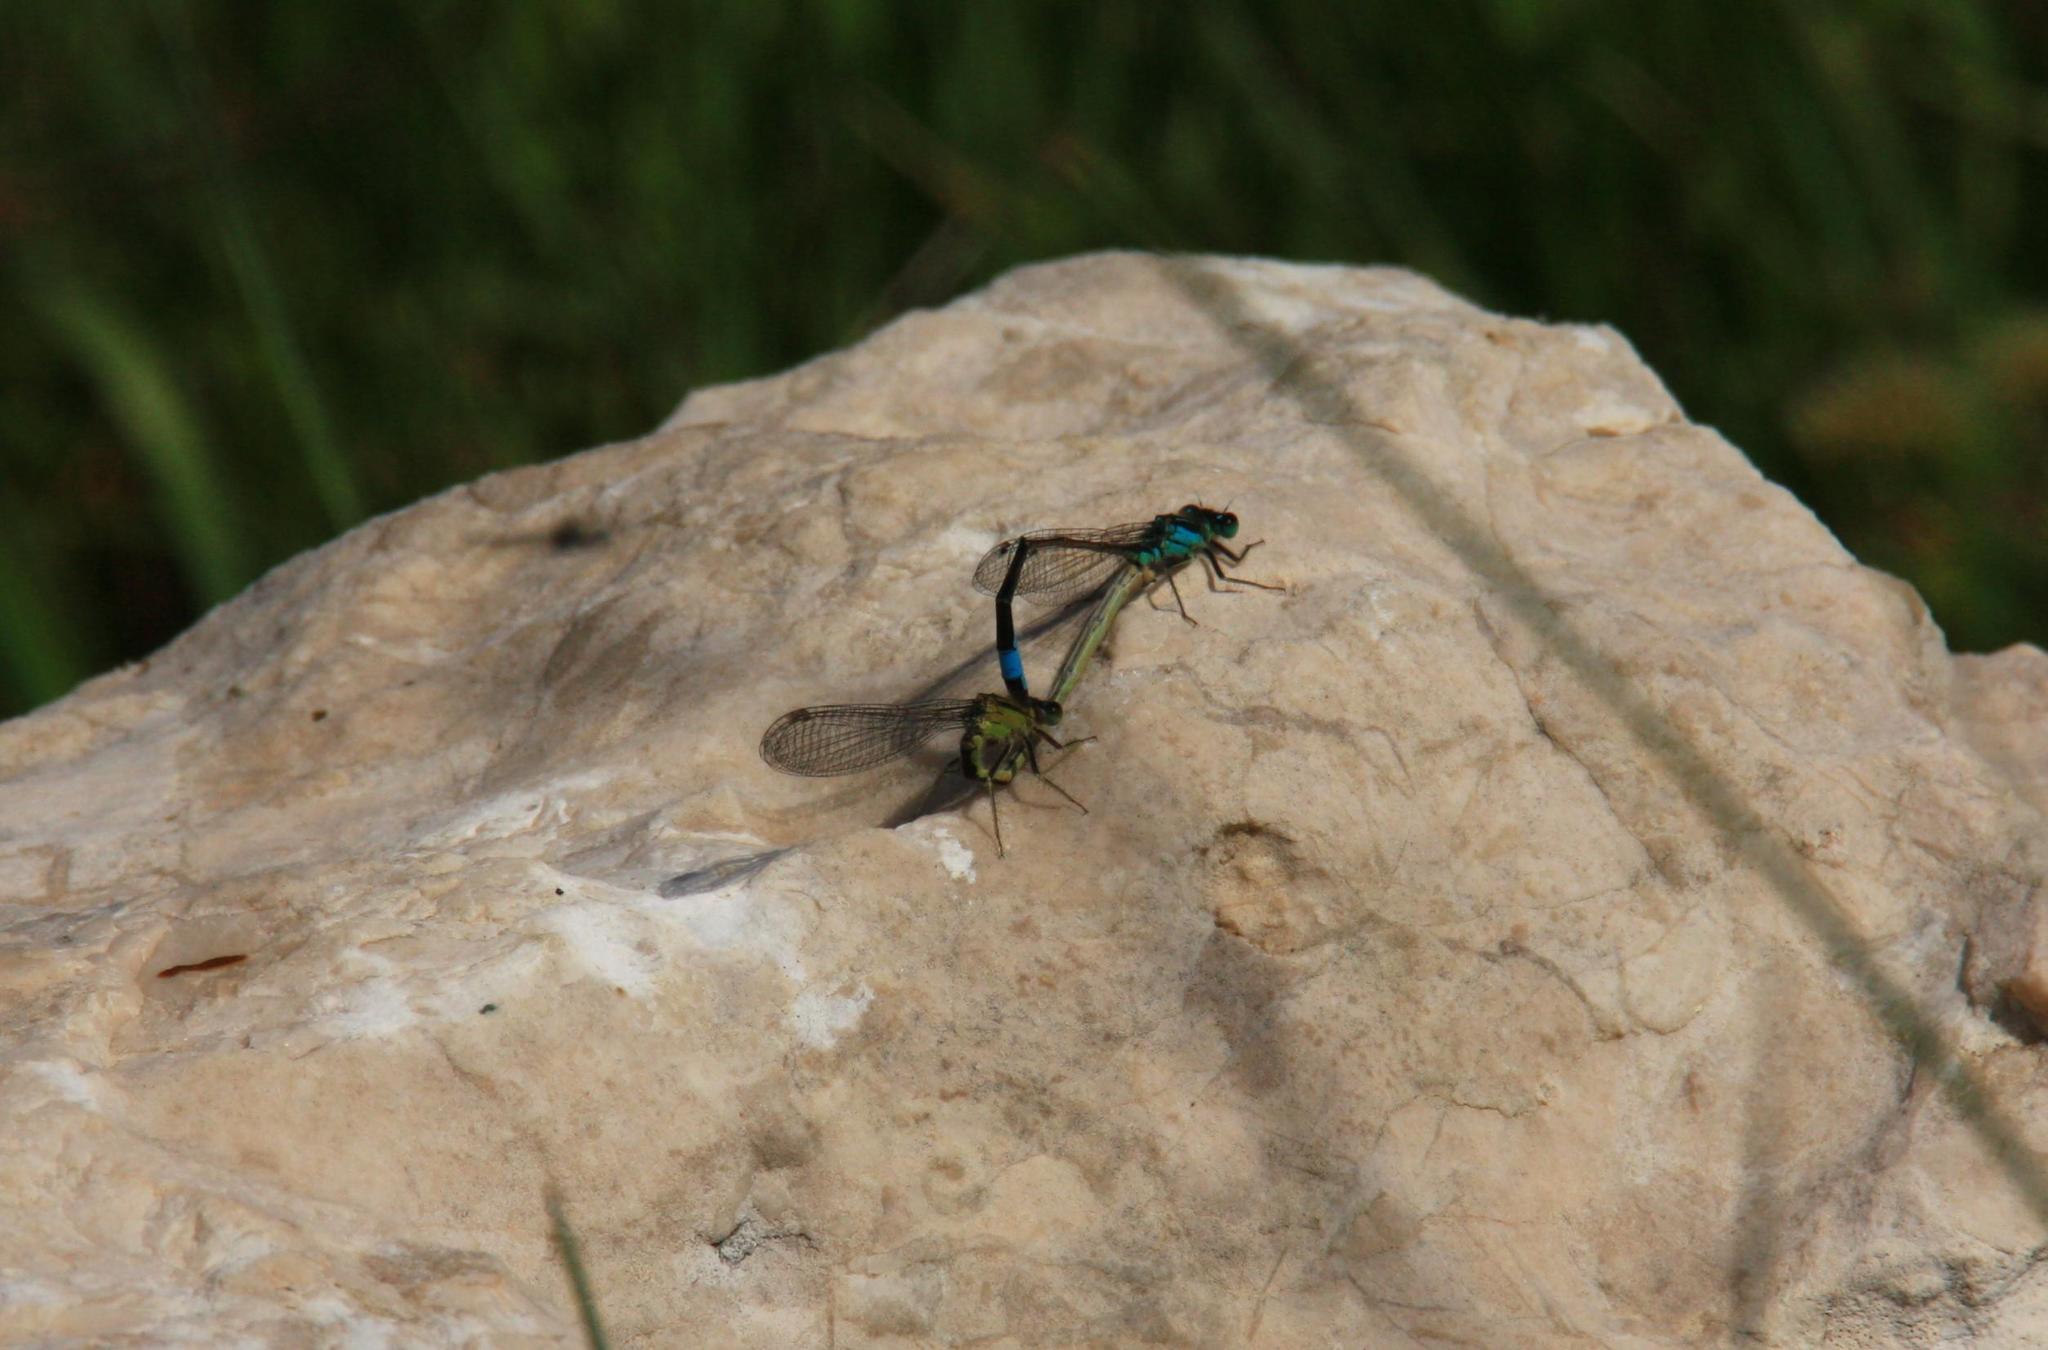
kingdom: Animalia
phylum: Arthropoda
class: Insecta
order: Odonata
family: Coenagrionidae
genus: Ischnura
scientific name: Ischnura elegans
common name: Blue-tailed damselfly
